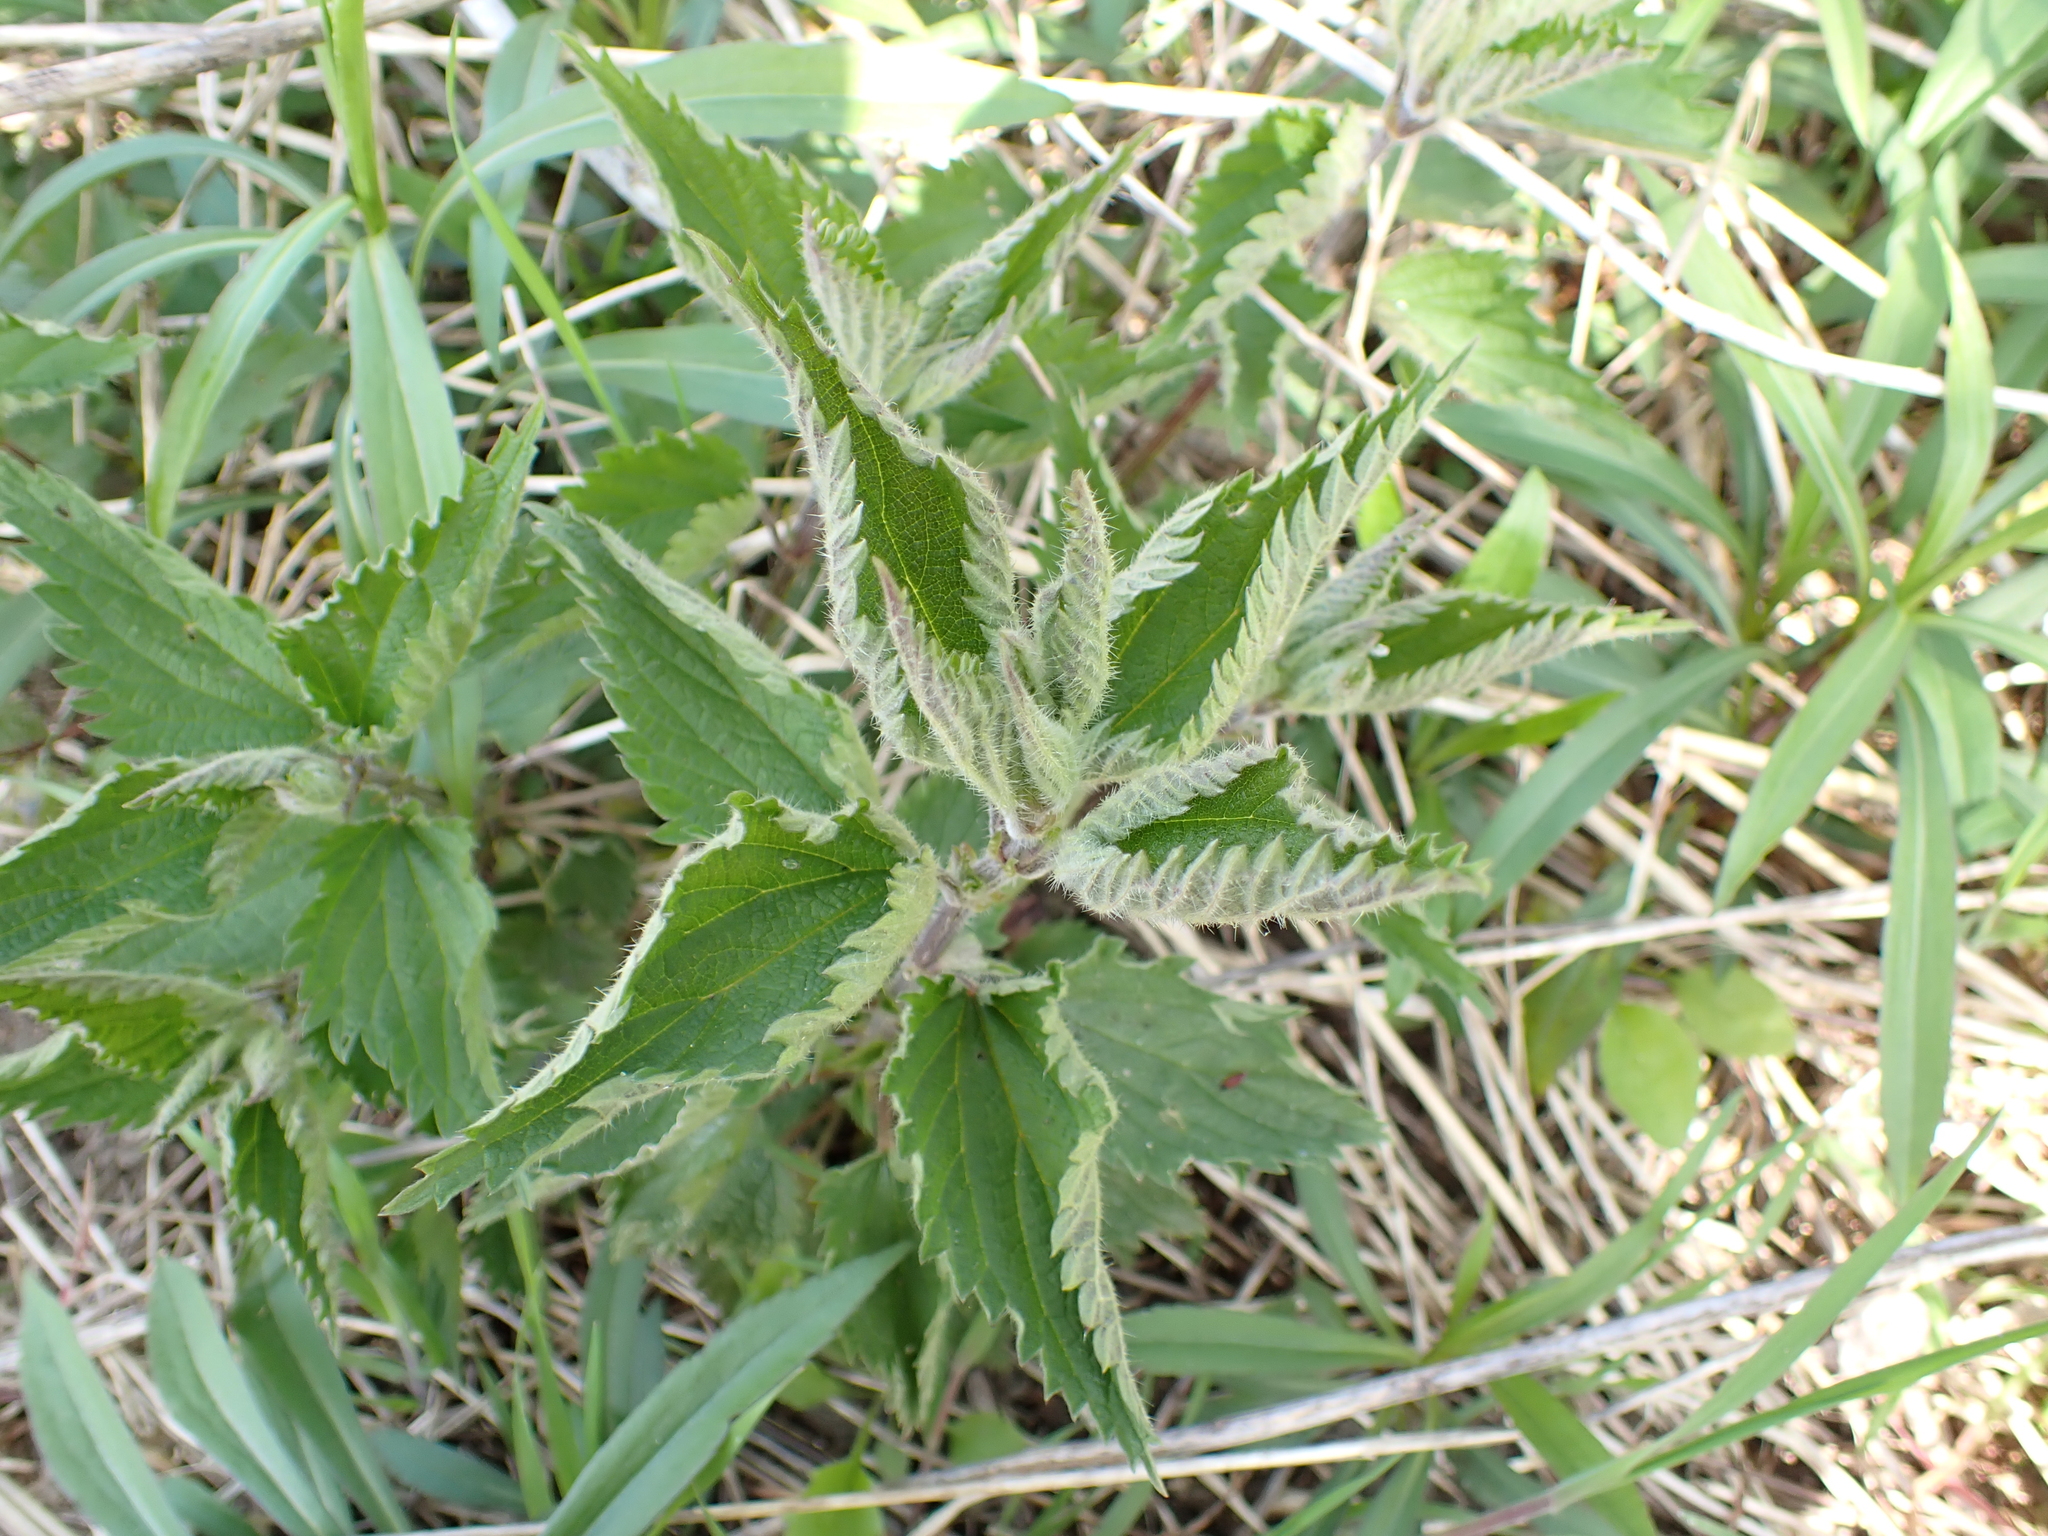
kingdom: Plantae
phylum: Tracheophyta
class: Magnoliopsida
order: Rosales
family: Urticaceae
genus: Urtica
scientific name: Urtica dioica
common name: Common nettle
